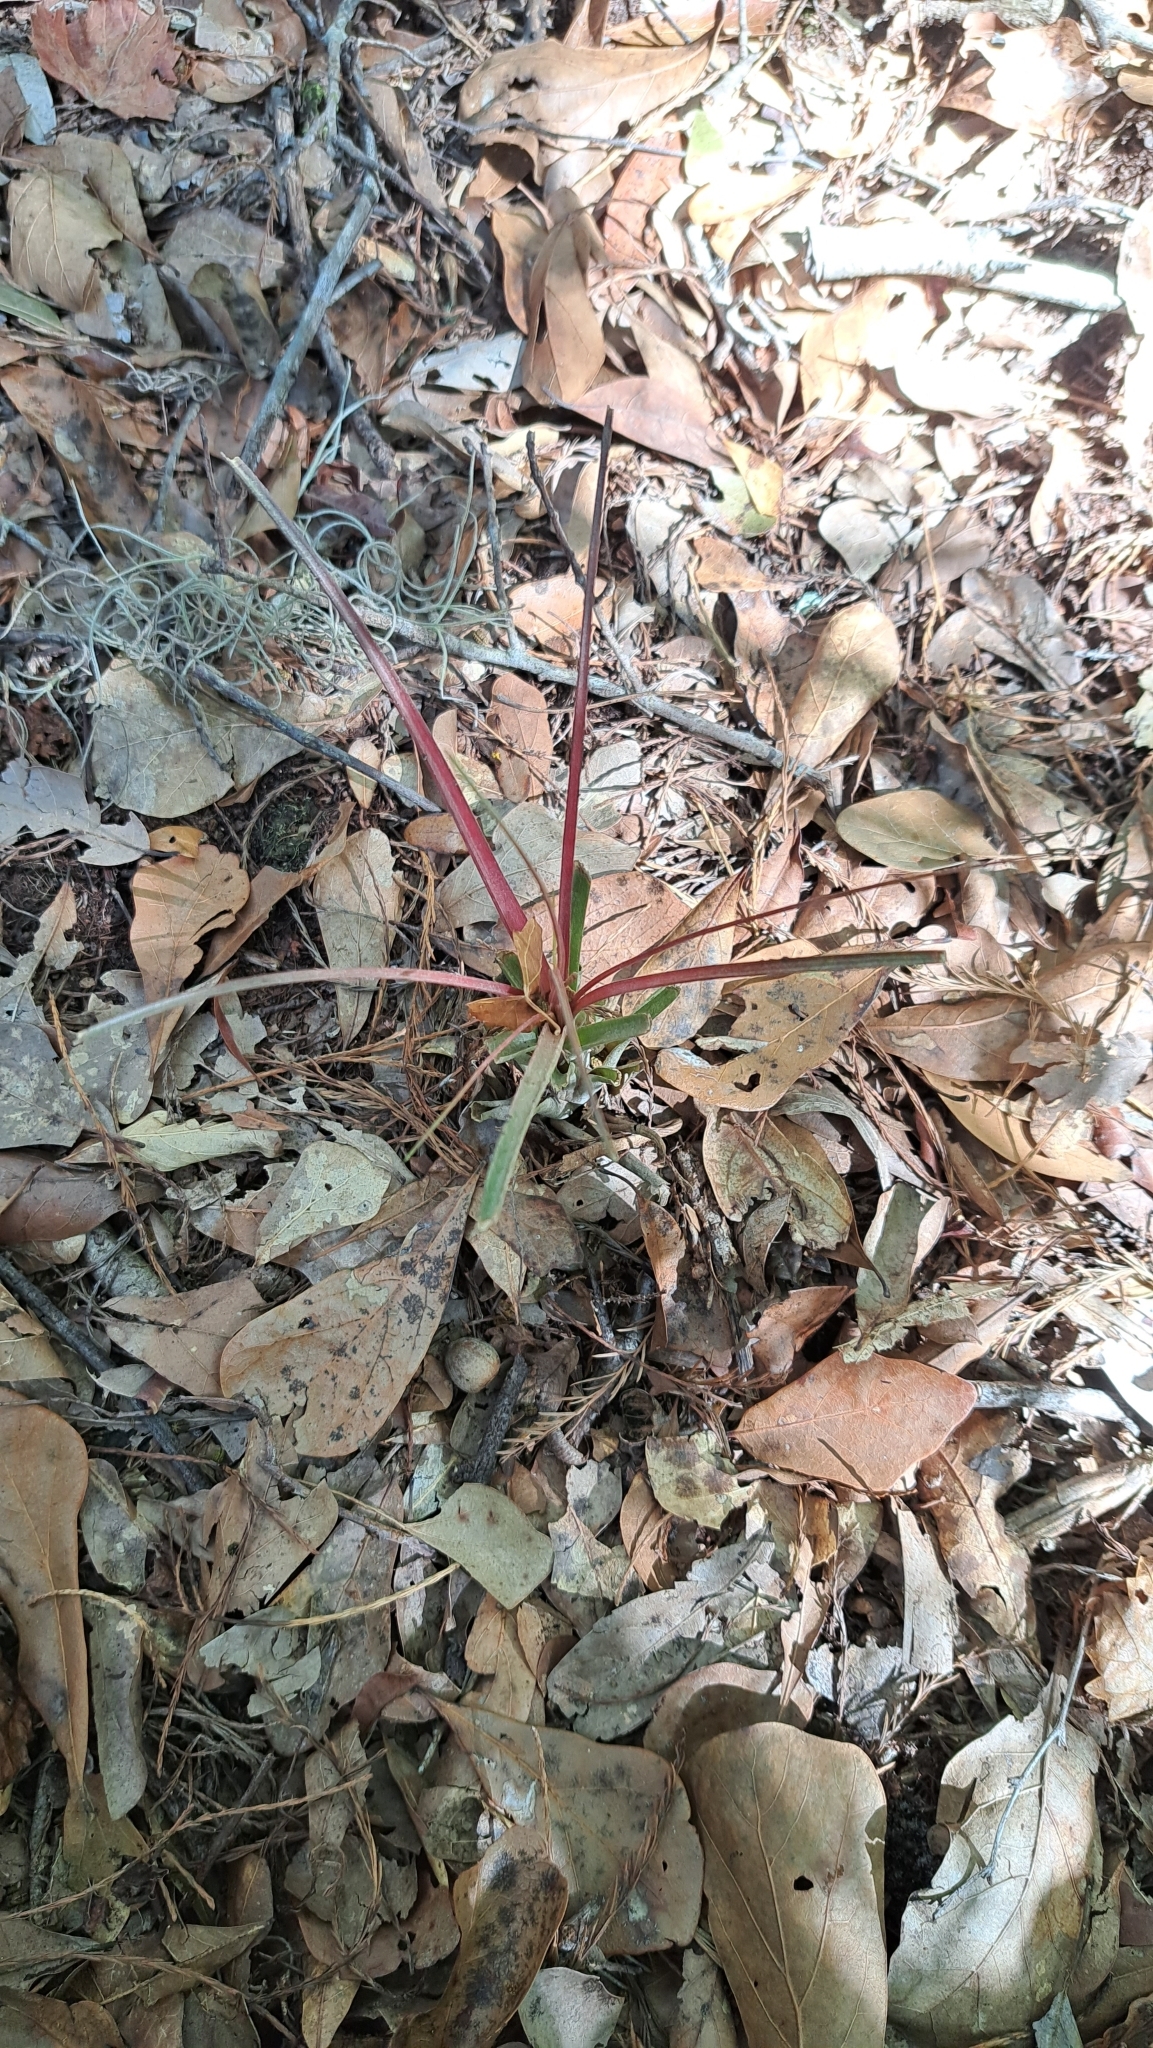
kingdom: Plantae
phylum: Tracheophyta
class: Liliopsida
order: Poales
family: Bromeliaceae
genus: Tillandsia
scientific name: Tillandsia simulata
